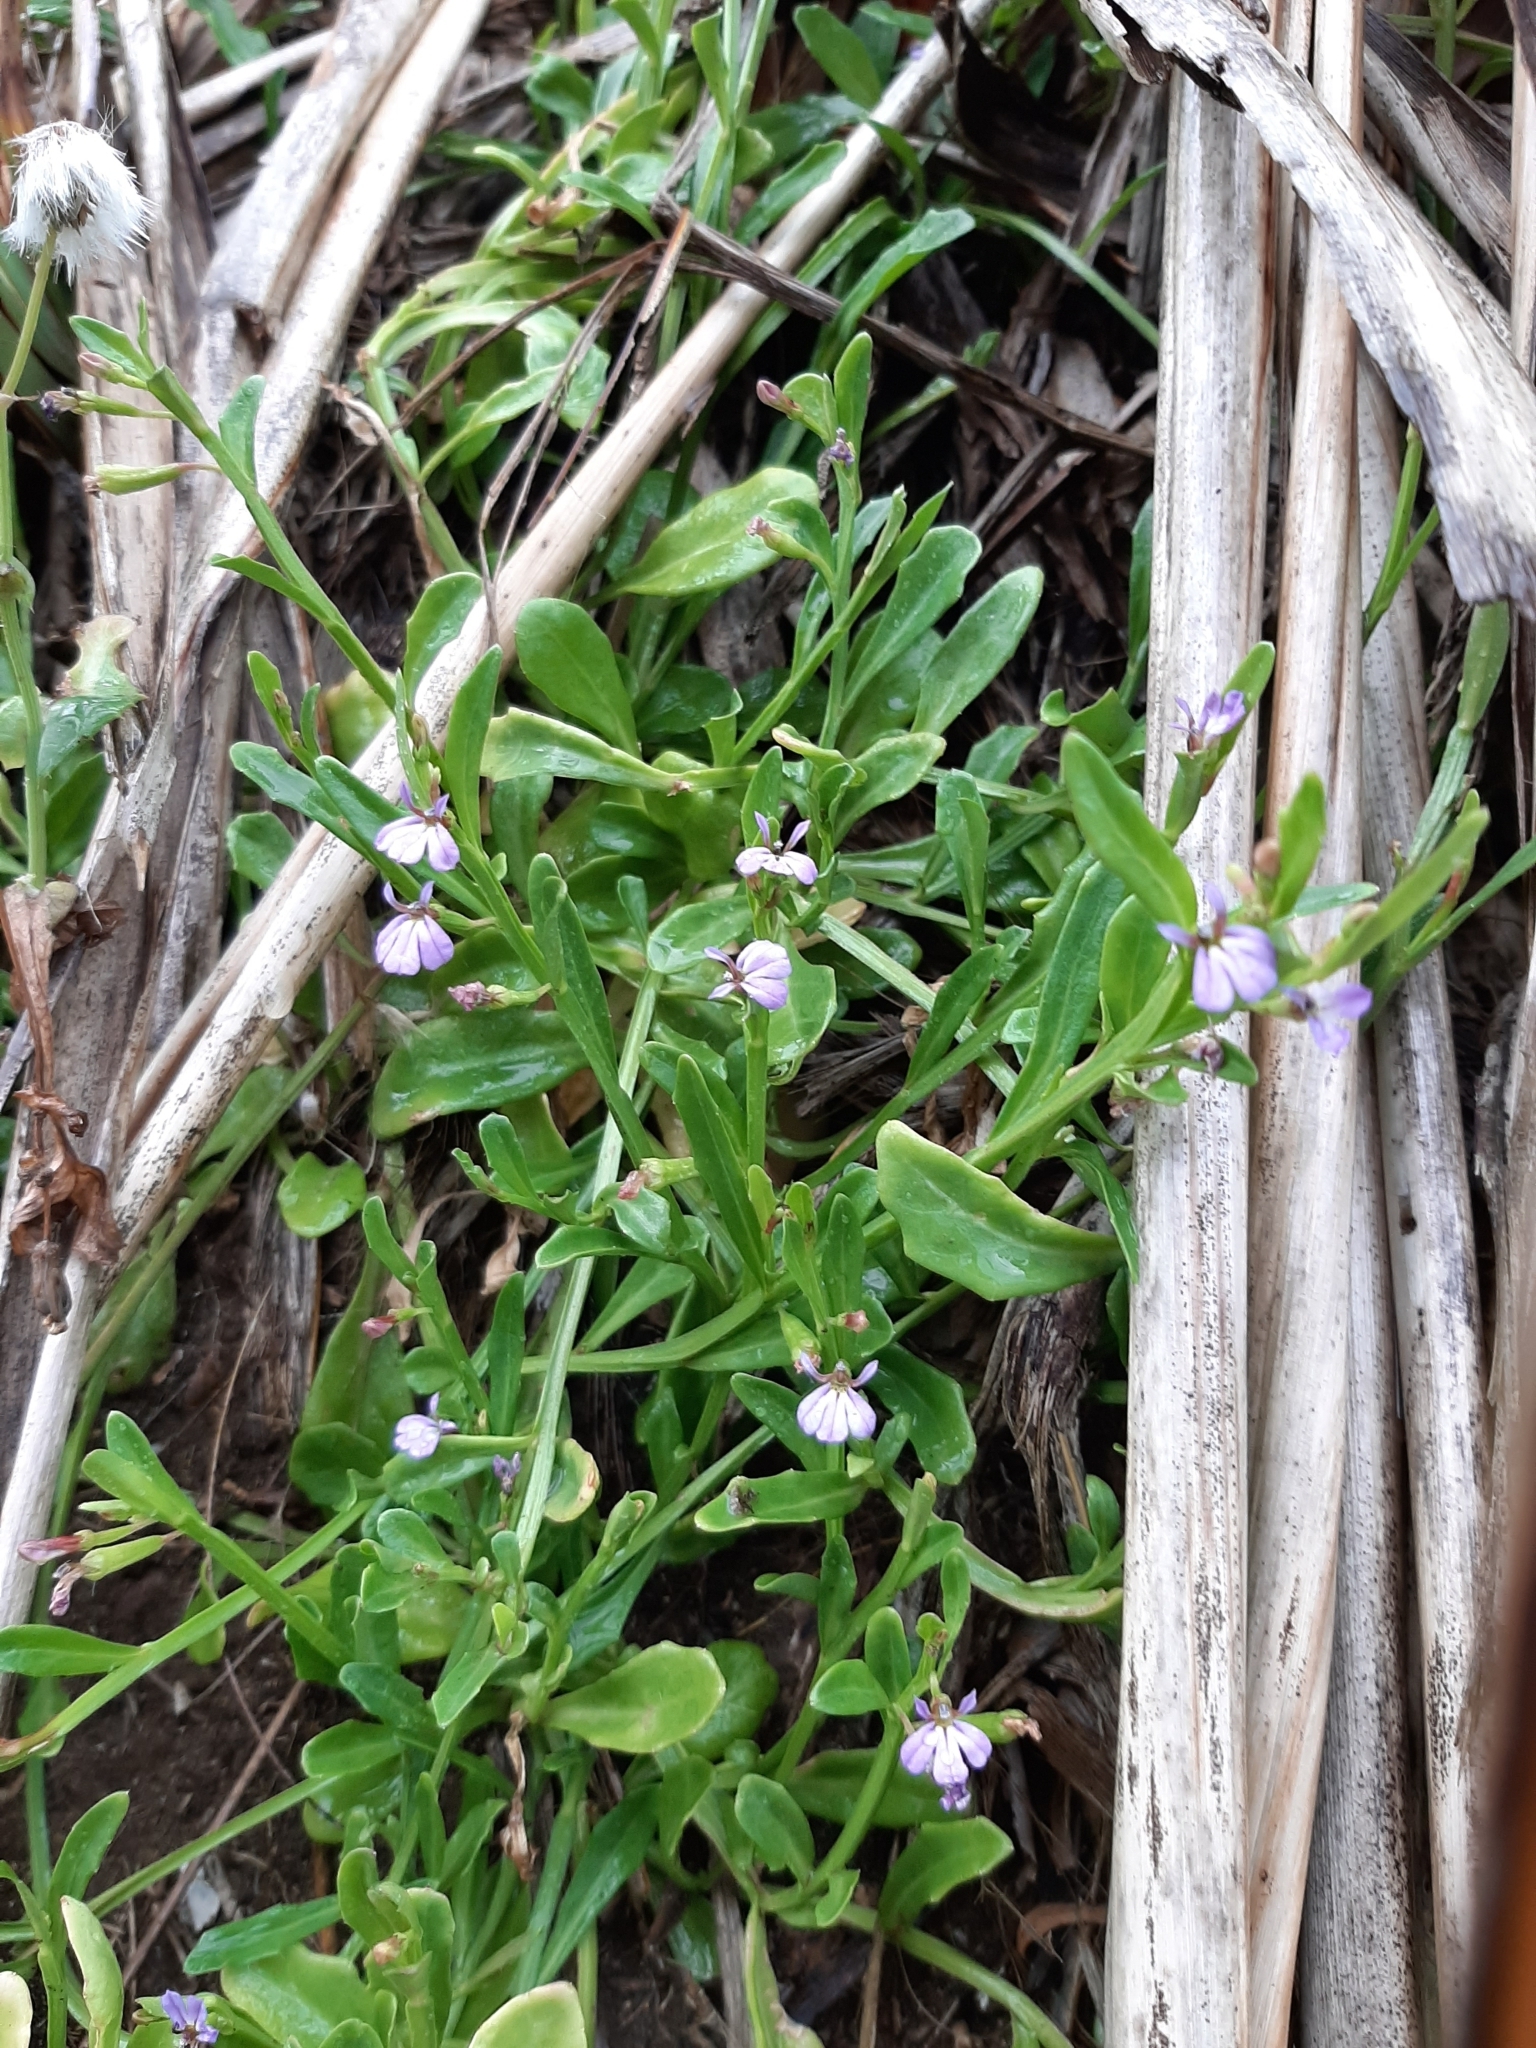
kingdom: Plantae
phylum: Tracheophyta
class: Magnoliopsida
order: Asterales
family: Campanulaceae
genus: Lobelia
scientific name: Lobelia anceps
